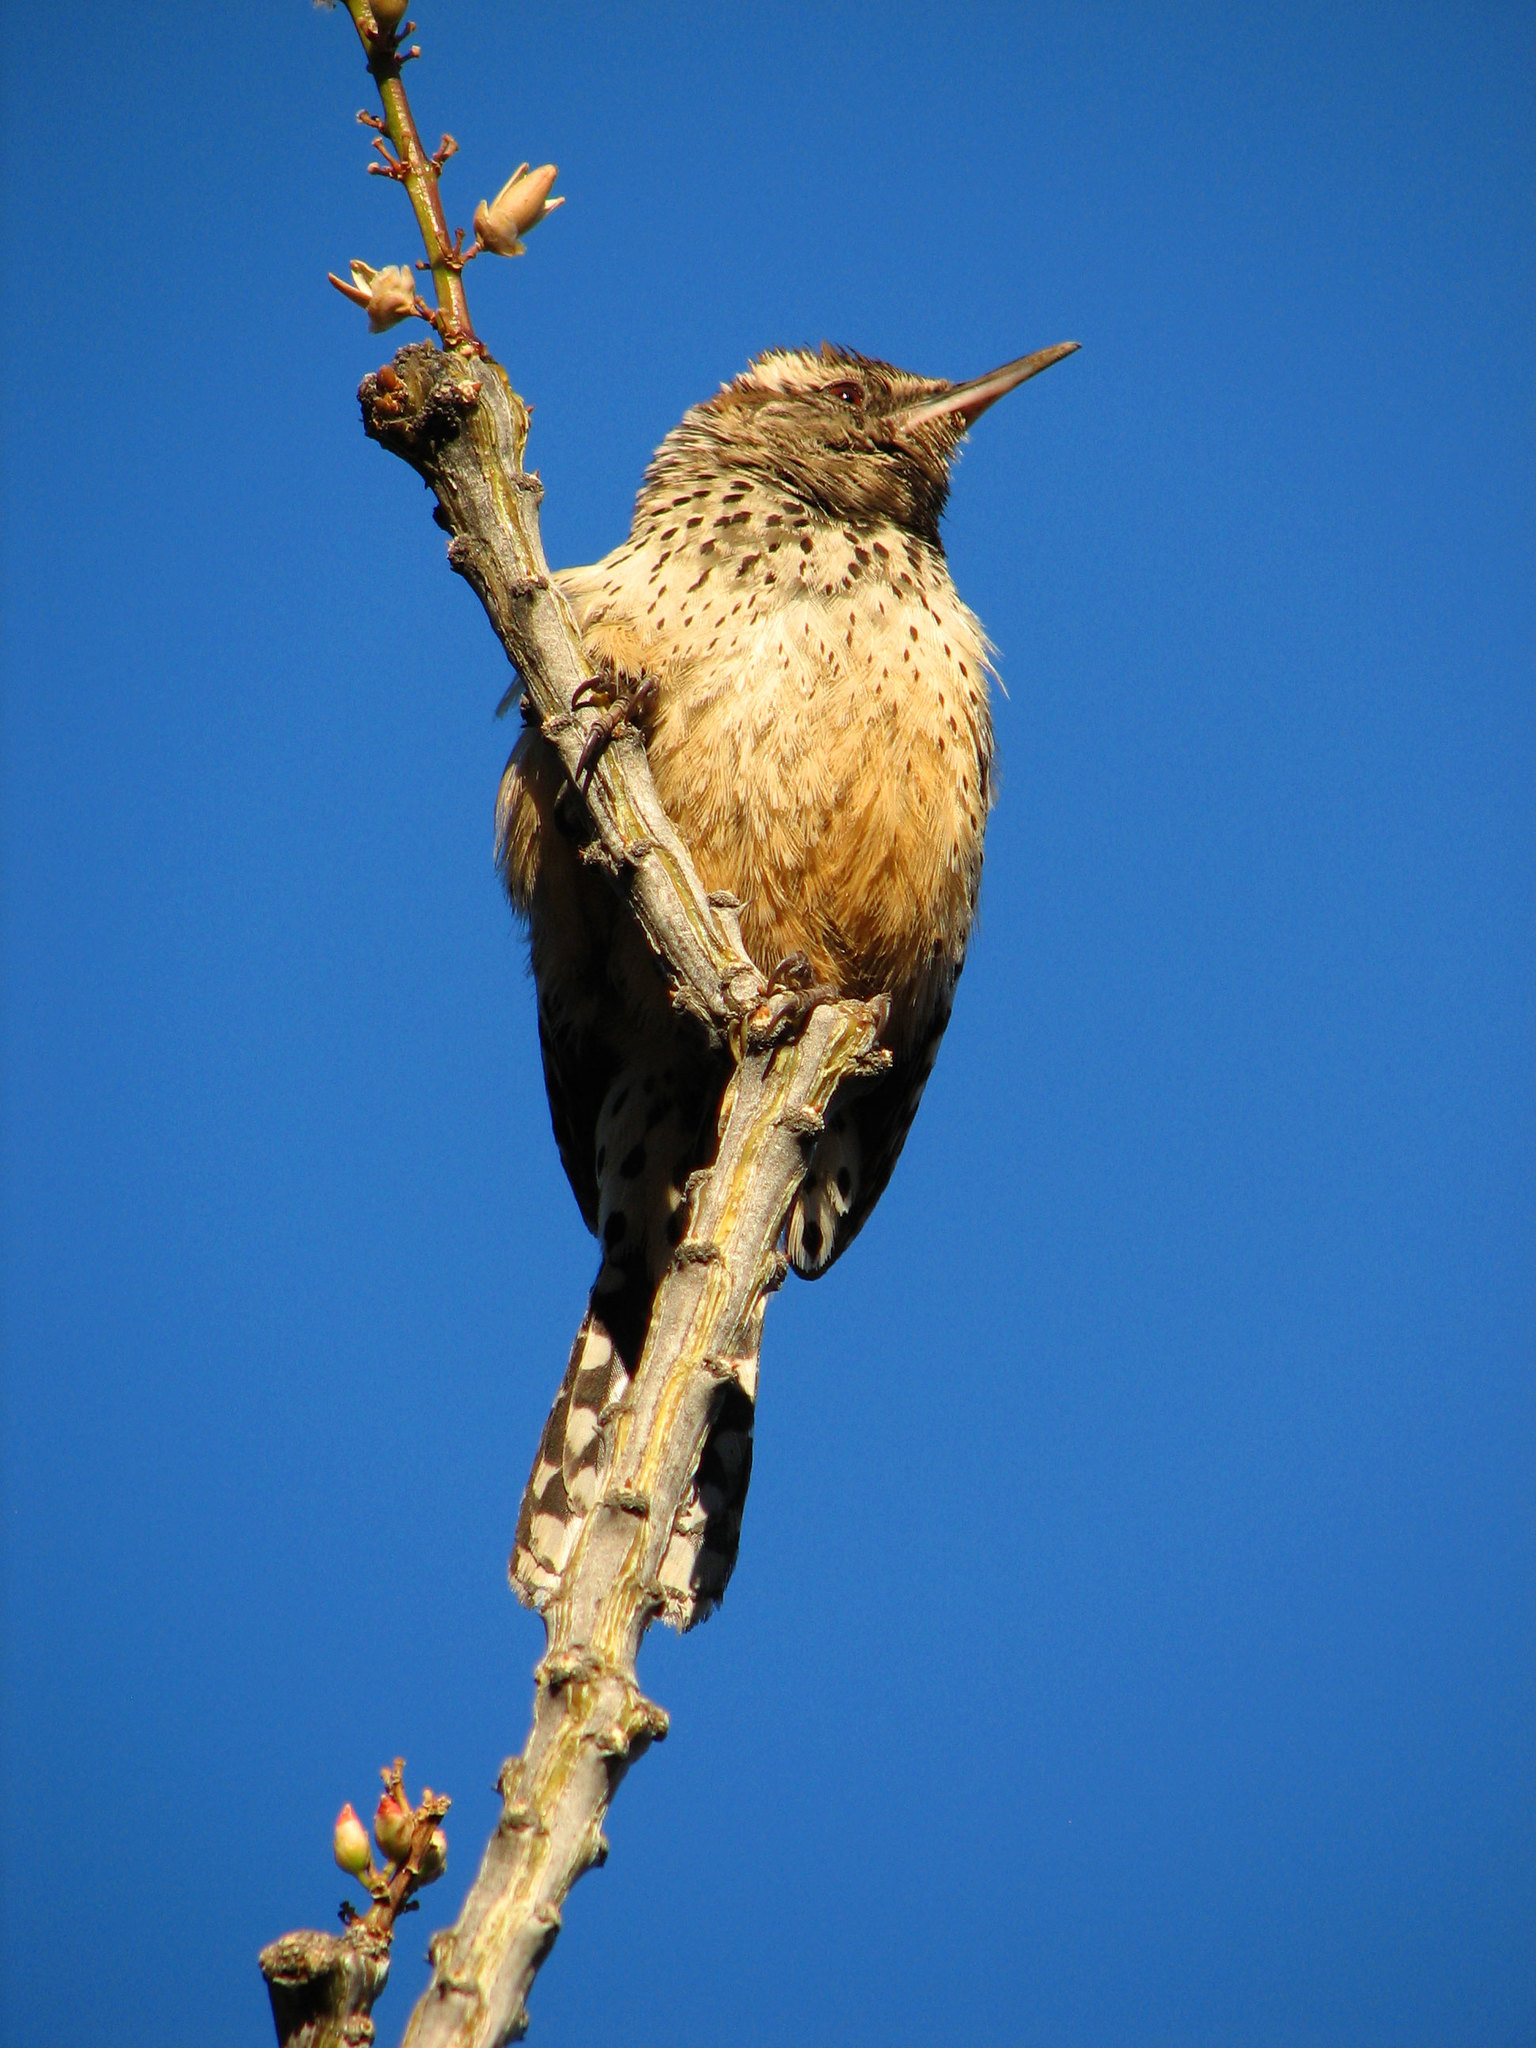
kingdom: Animalia
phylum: Chordata
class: Aves
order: Passeriformes
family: Troglodytidae
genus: Campylorhynchus
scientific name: Campylorhynchus brunneicapillus
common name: Cactus wren
